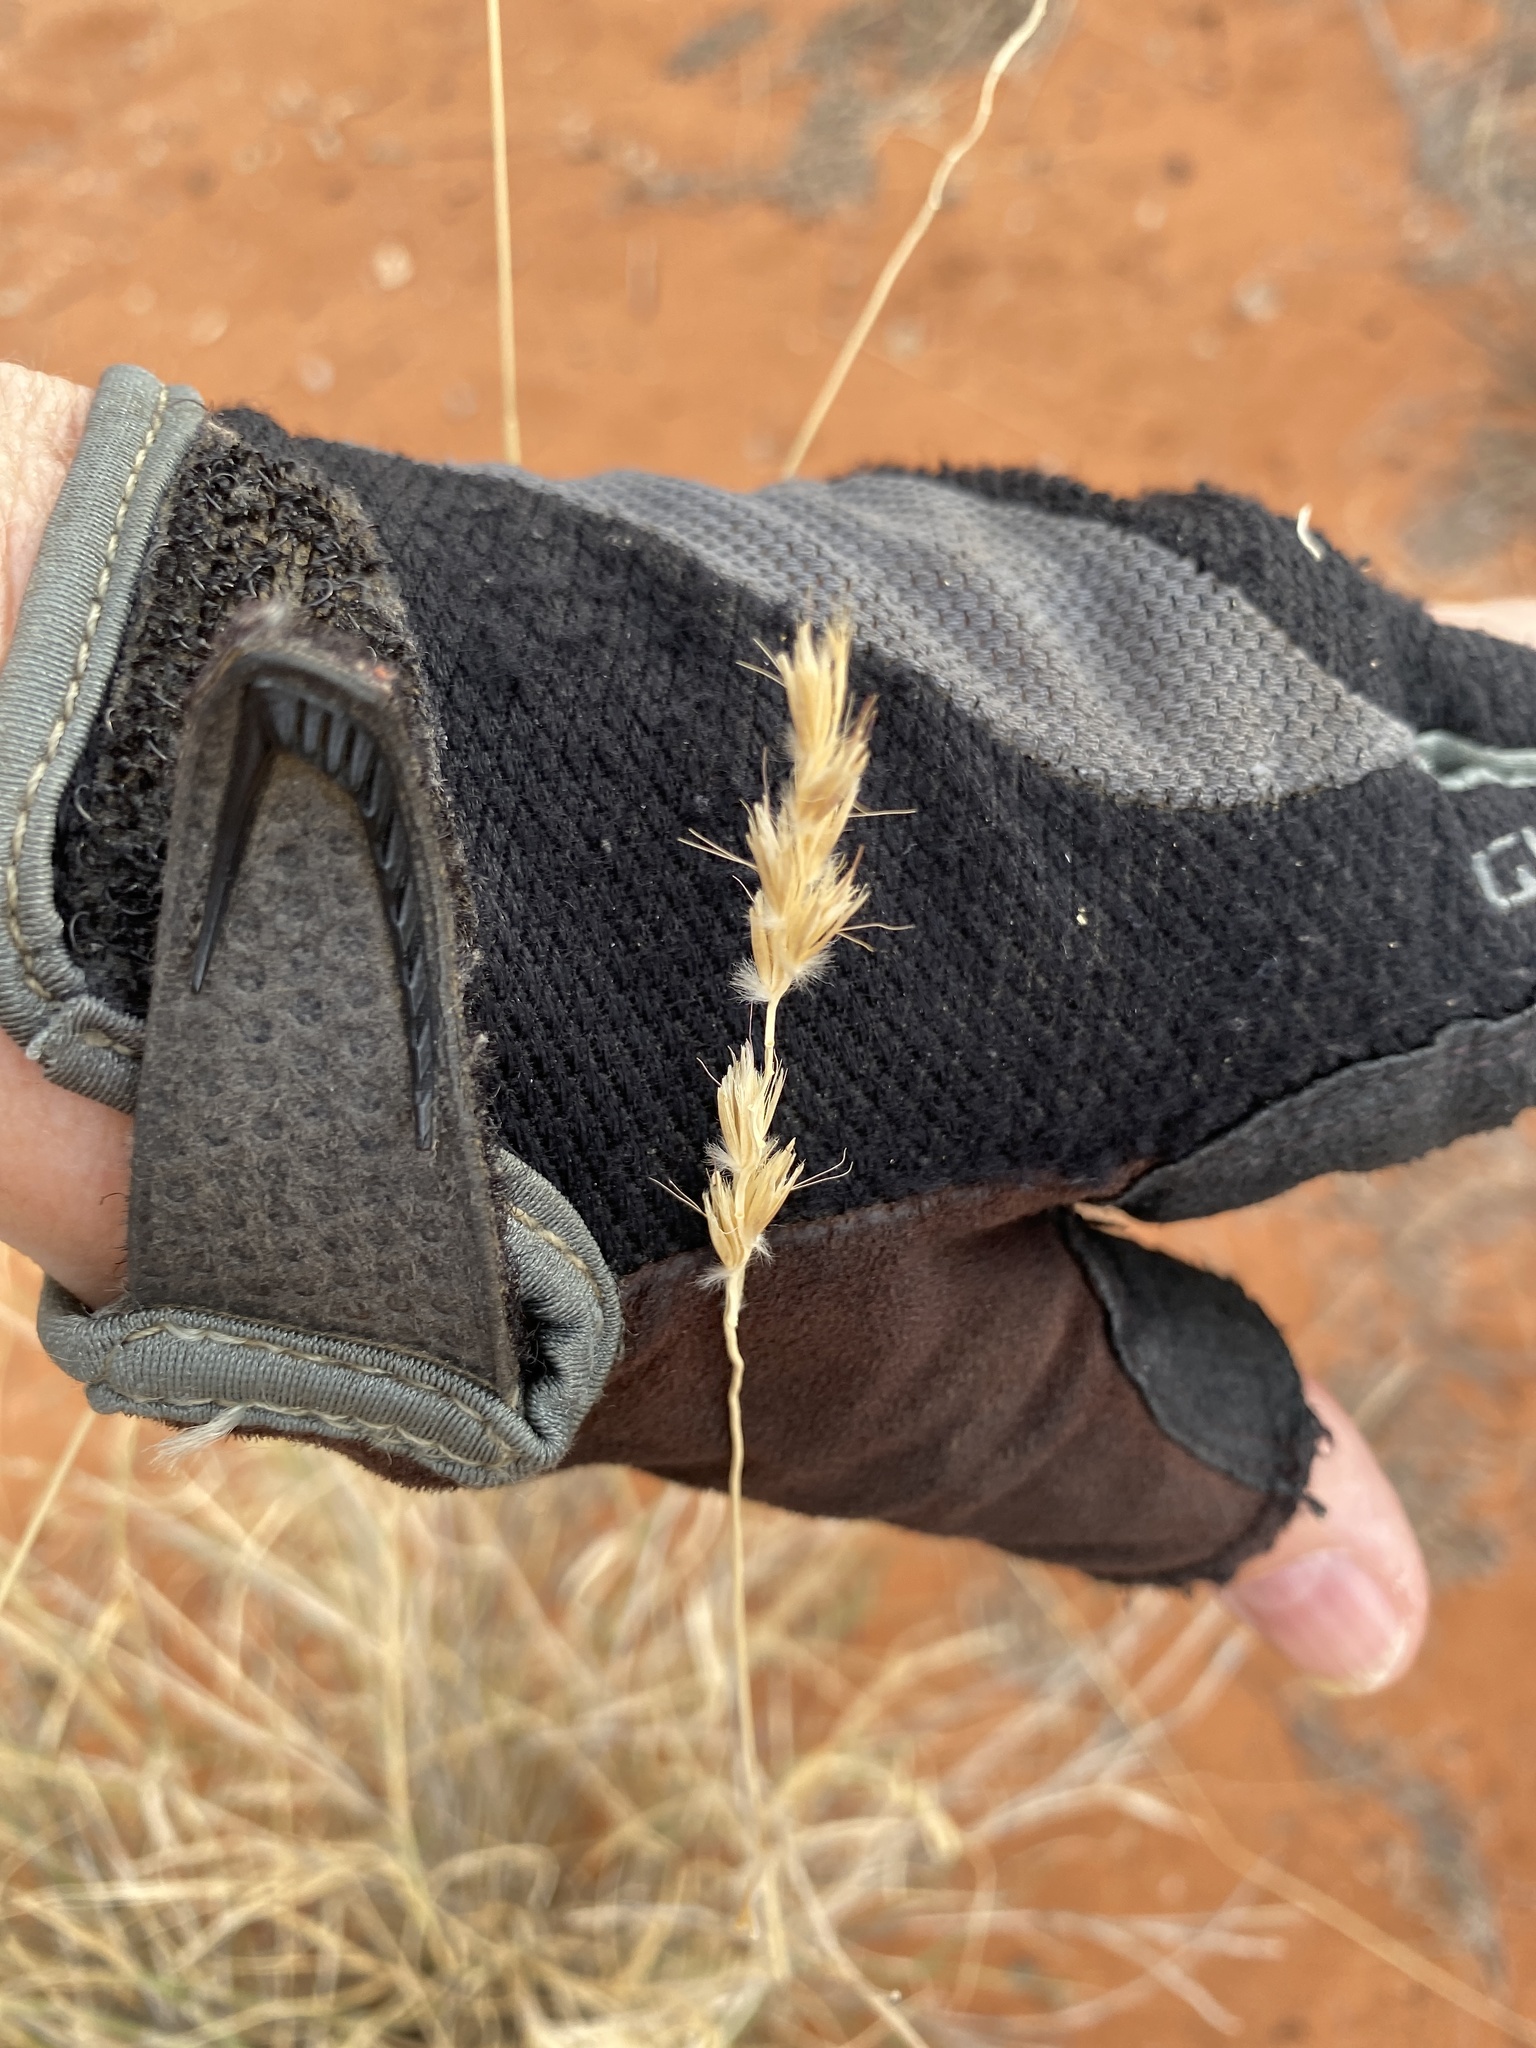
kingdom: Plantae
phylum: Tracheophyta
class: Liliopsida
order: Poales
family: Poaceae
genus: Hilaria
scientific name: Hilaria rigida
